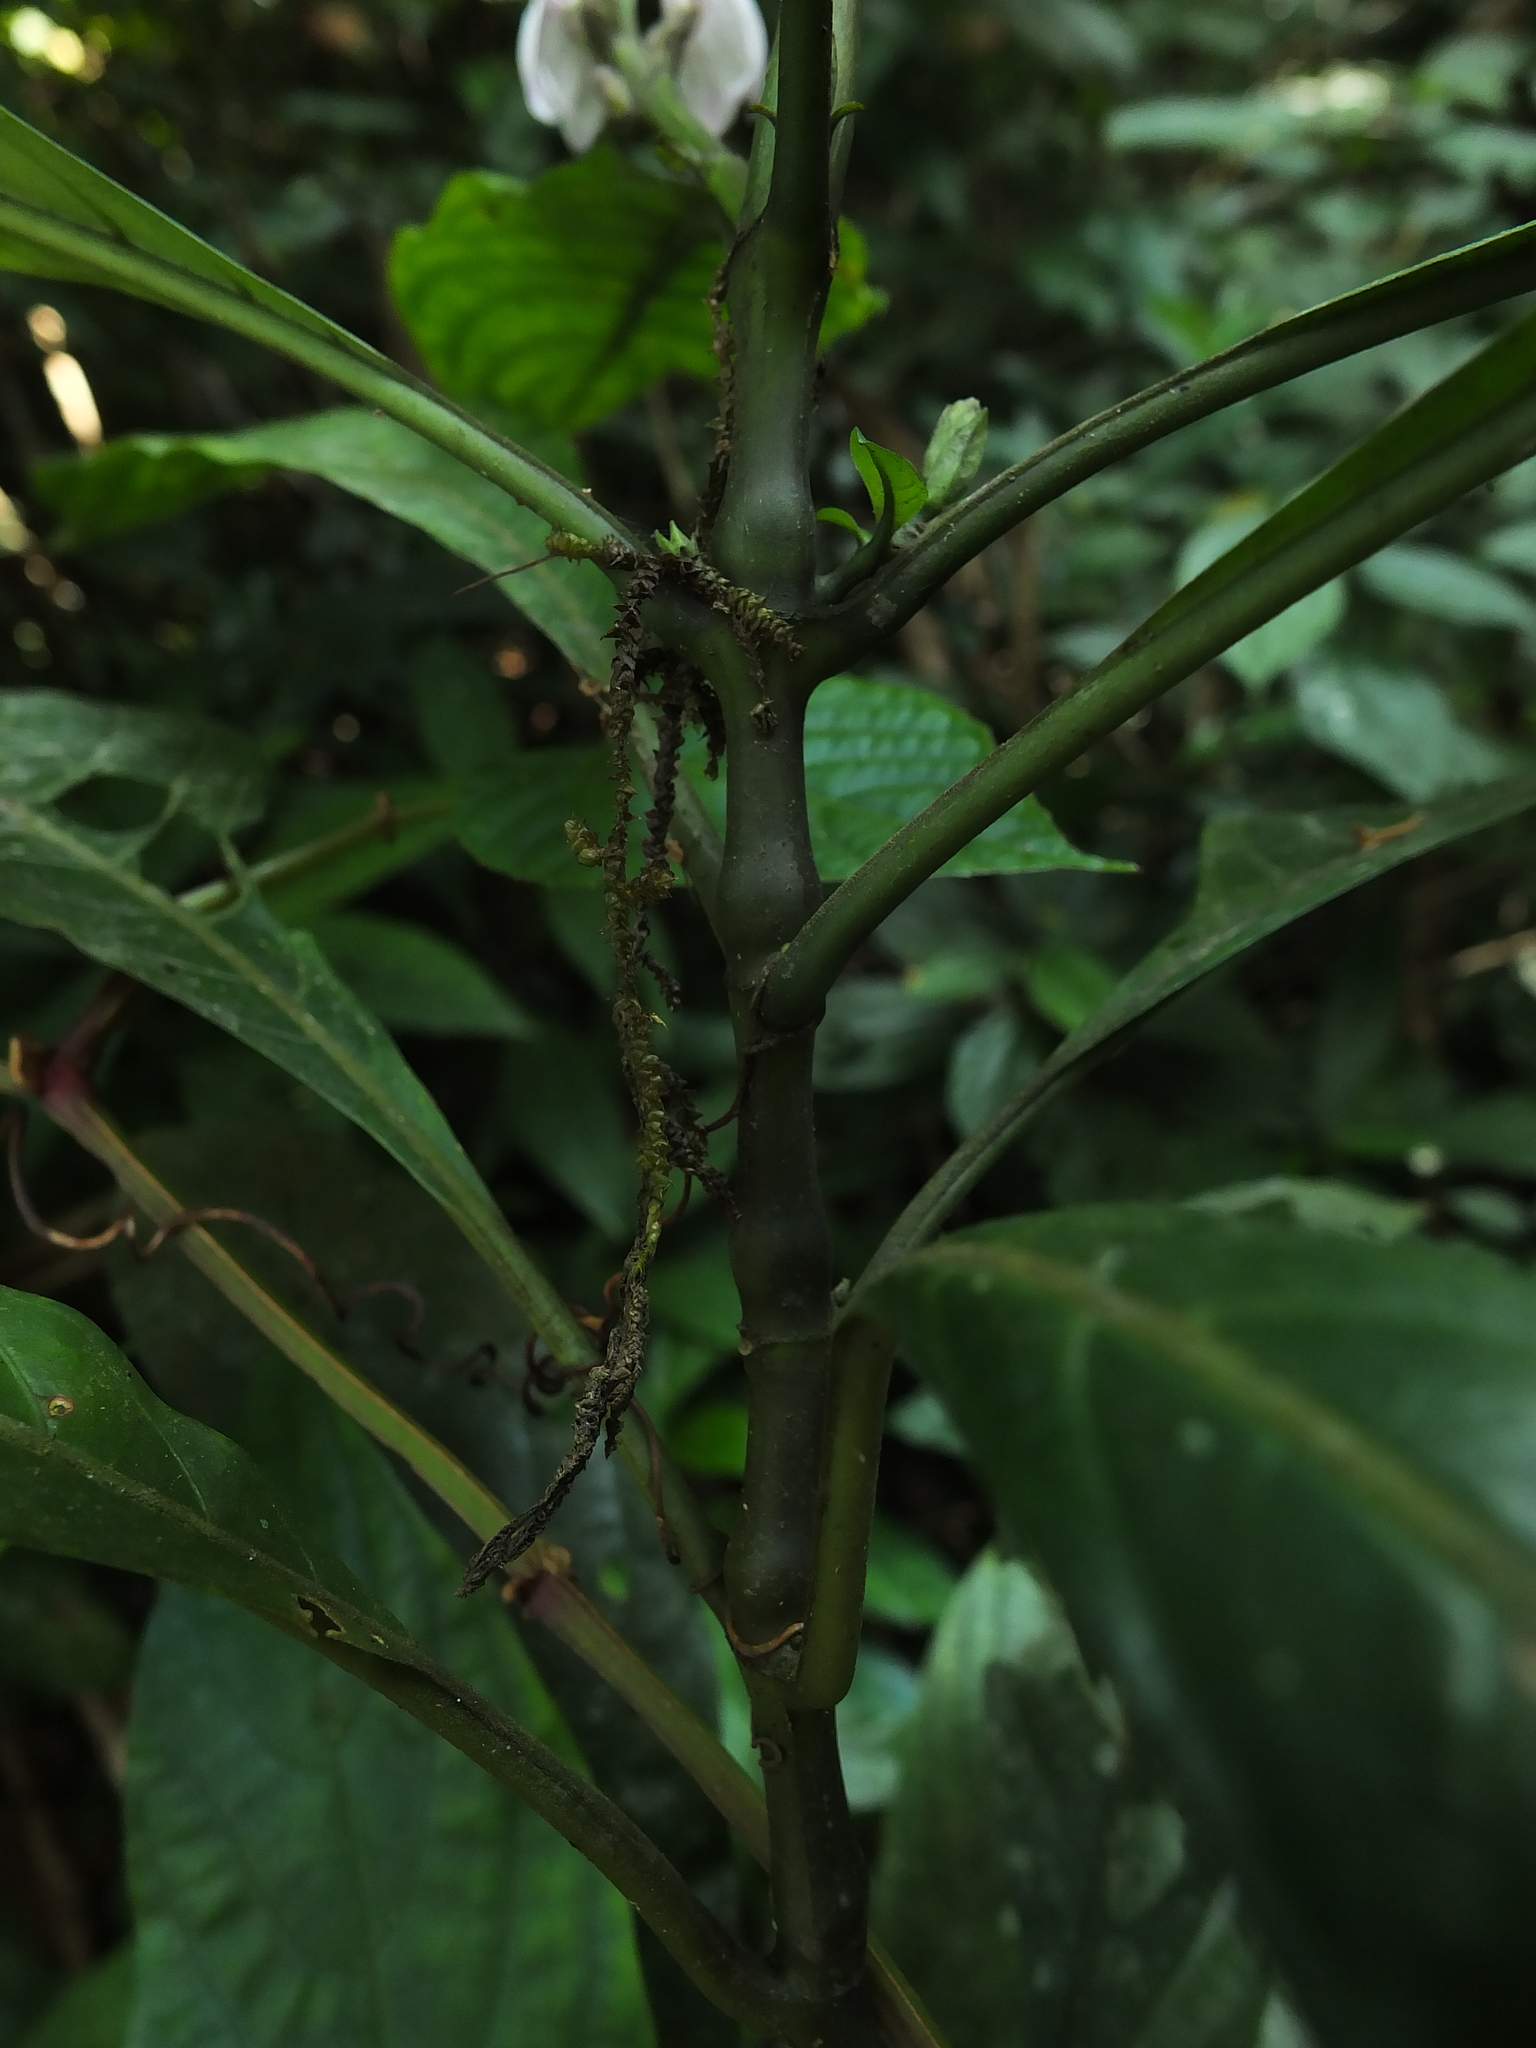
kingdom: Plantae
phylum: Tracheophyta
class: Magnoliopsida
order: Lamiales
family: Acanthaceae
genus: Justicia
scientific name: Justicia santapaui
